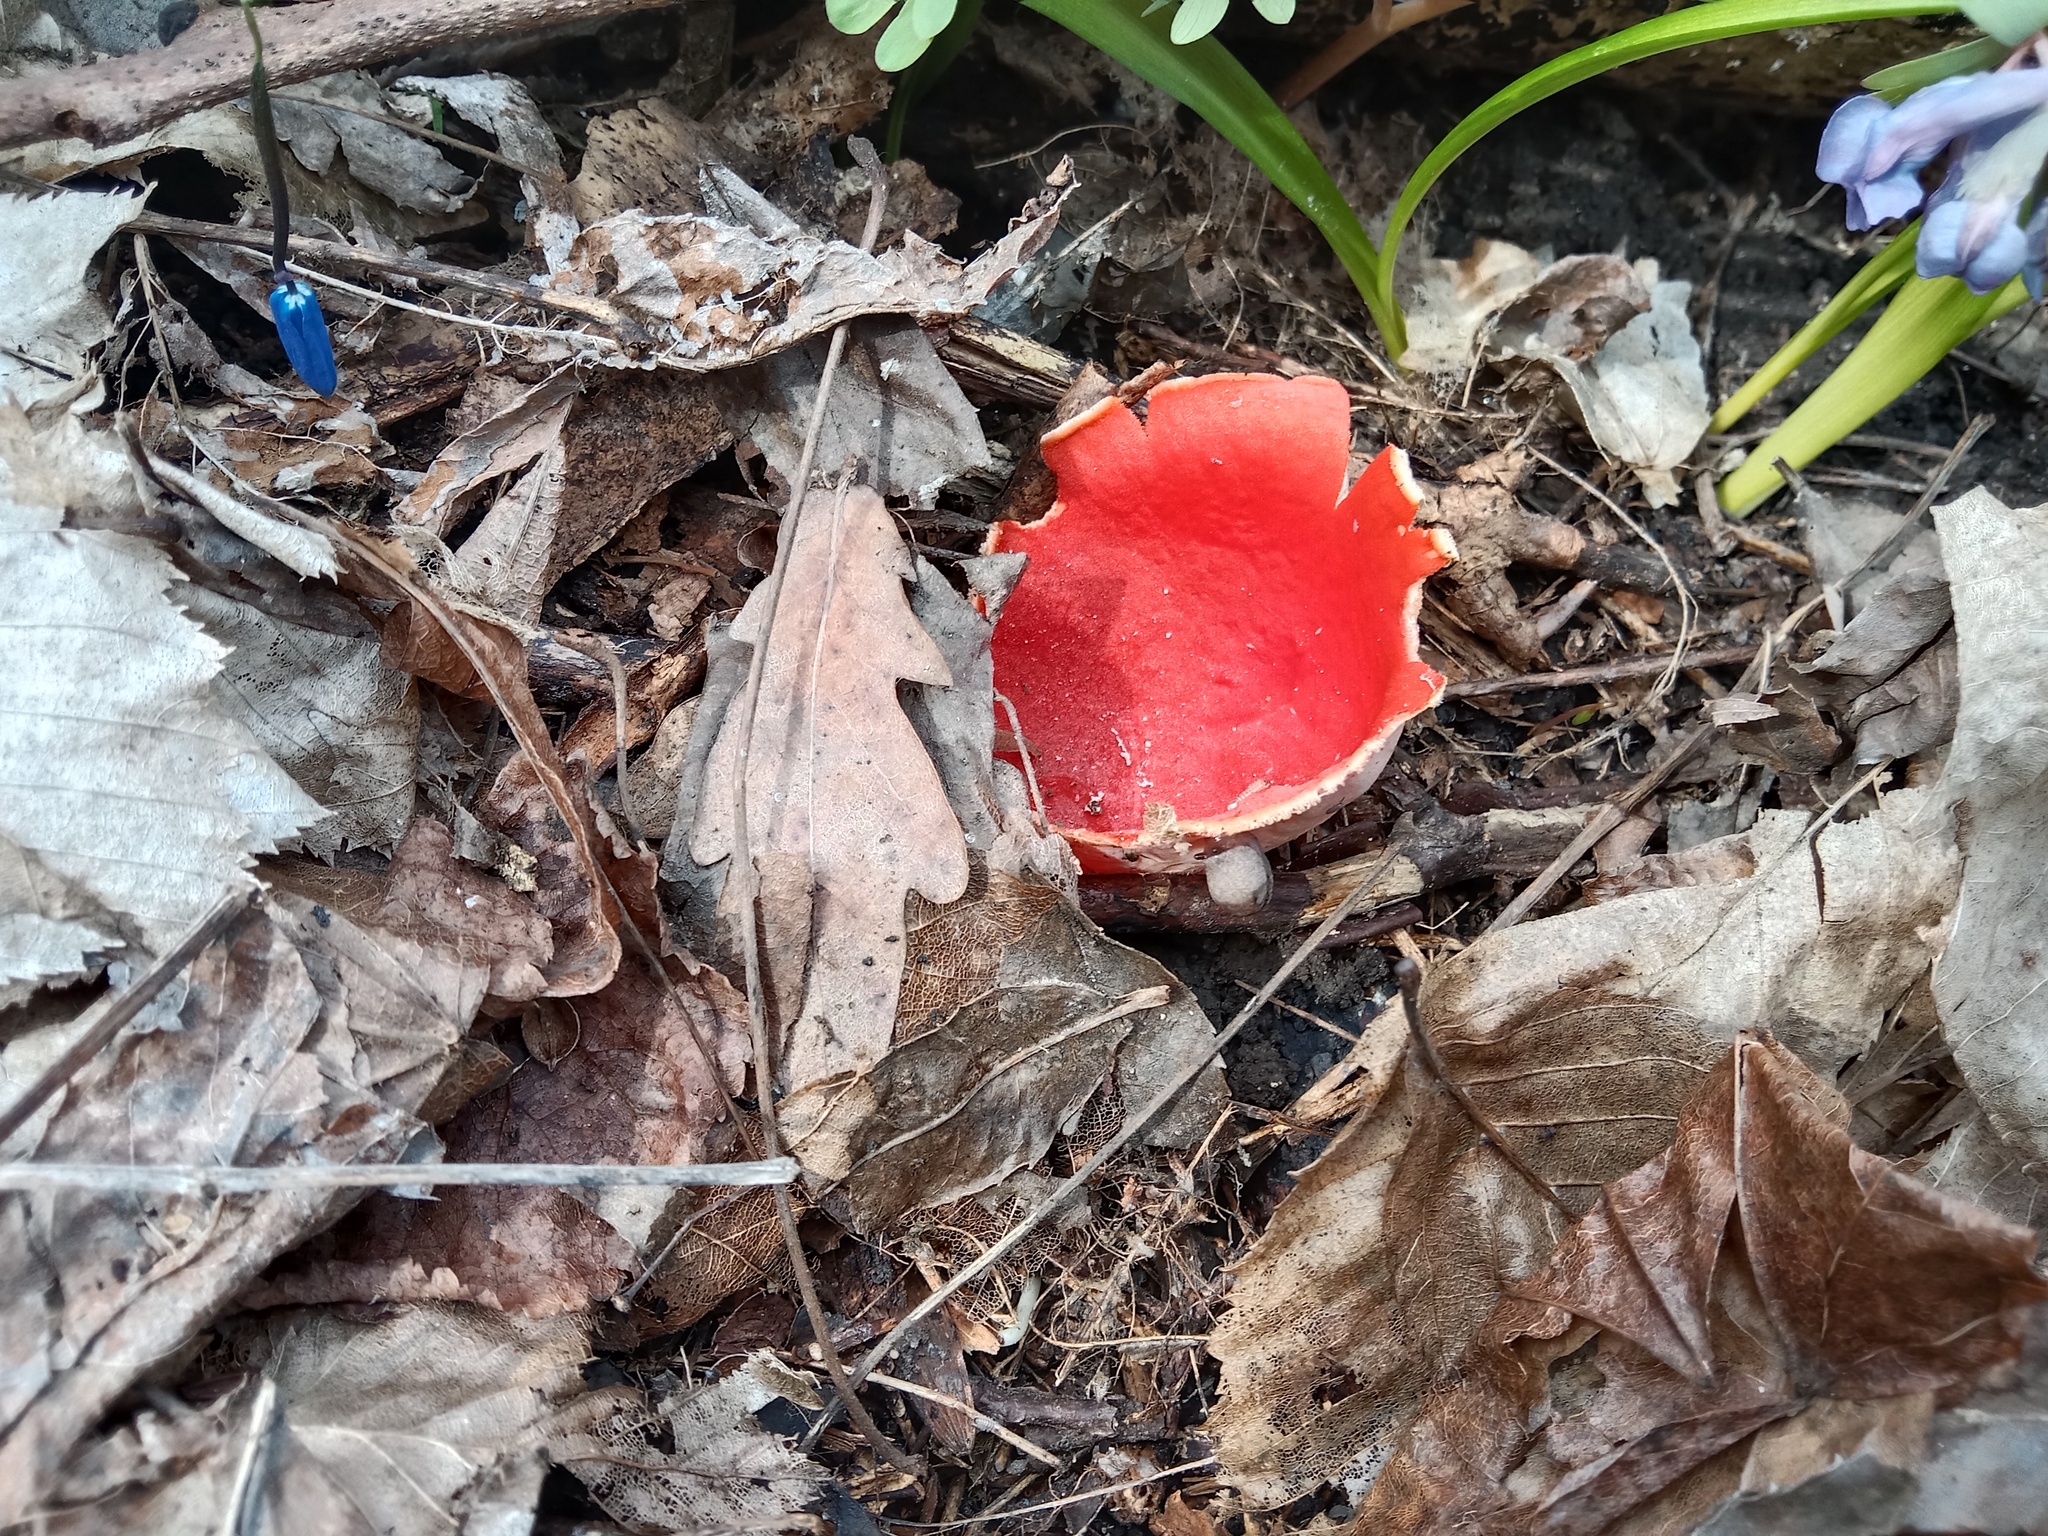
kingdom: Fungi
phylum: Ascomycota
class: Pezizomycetes
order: Pezizales
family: Sarcoscyphaceae
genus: Sarcoscypha
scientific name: Sarcoscypha
